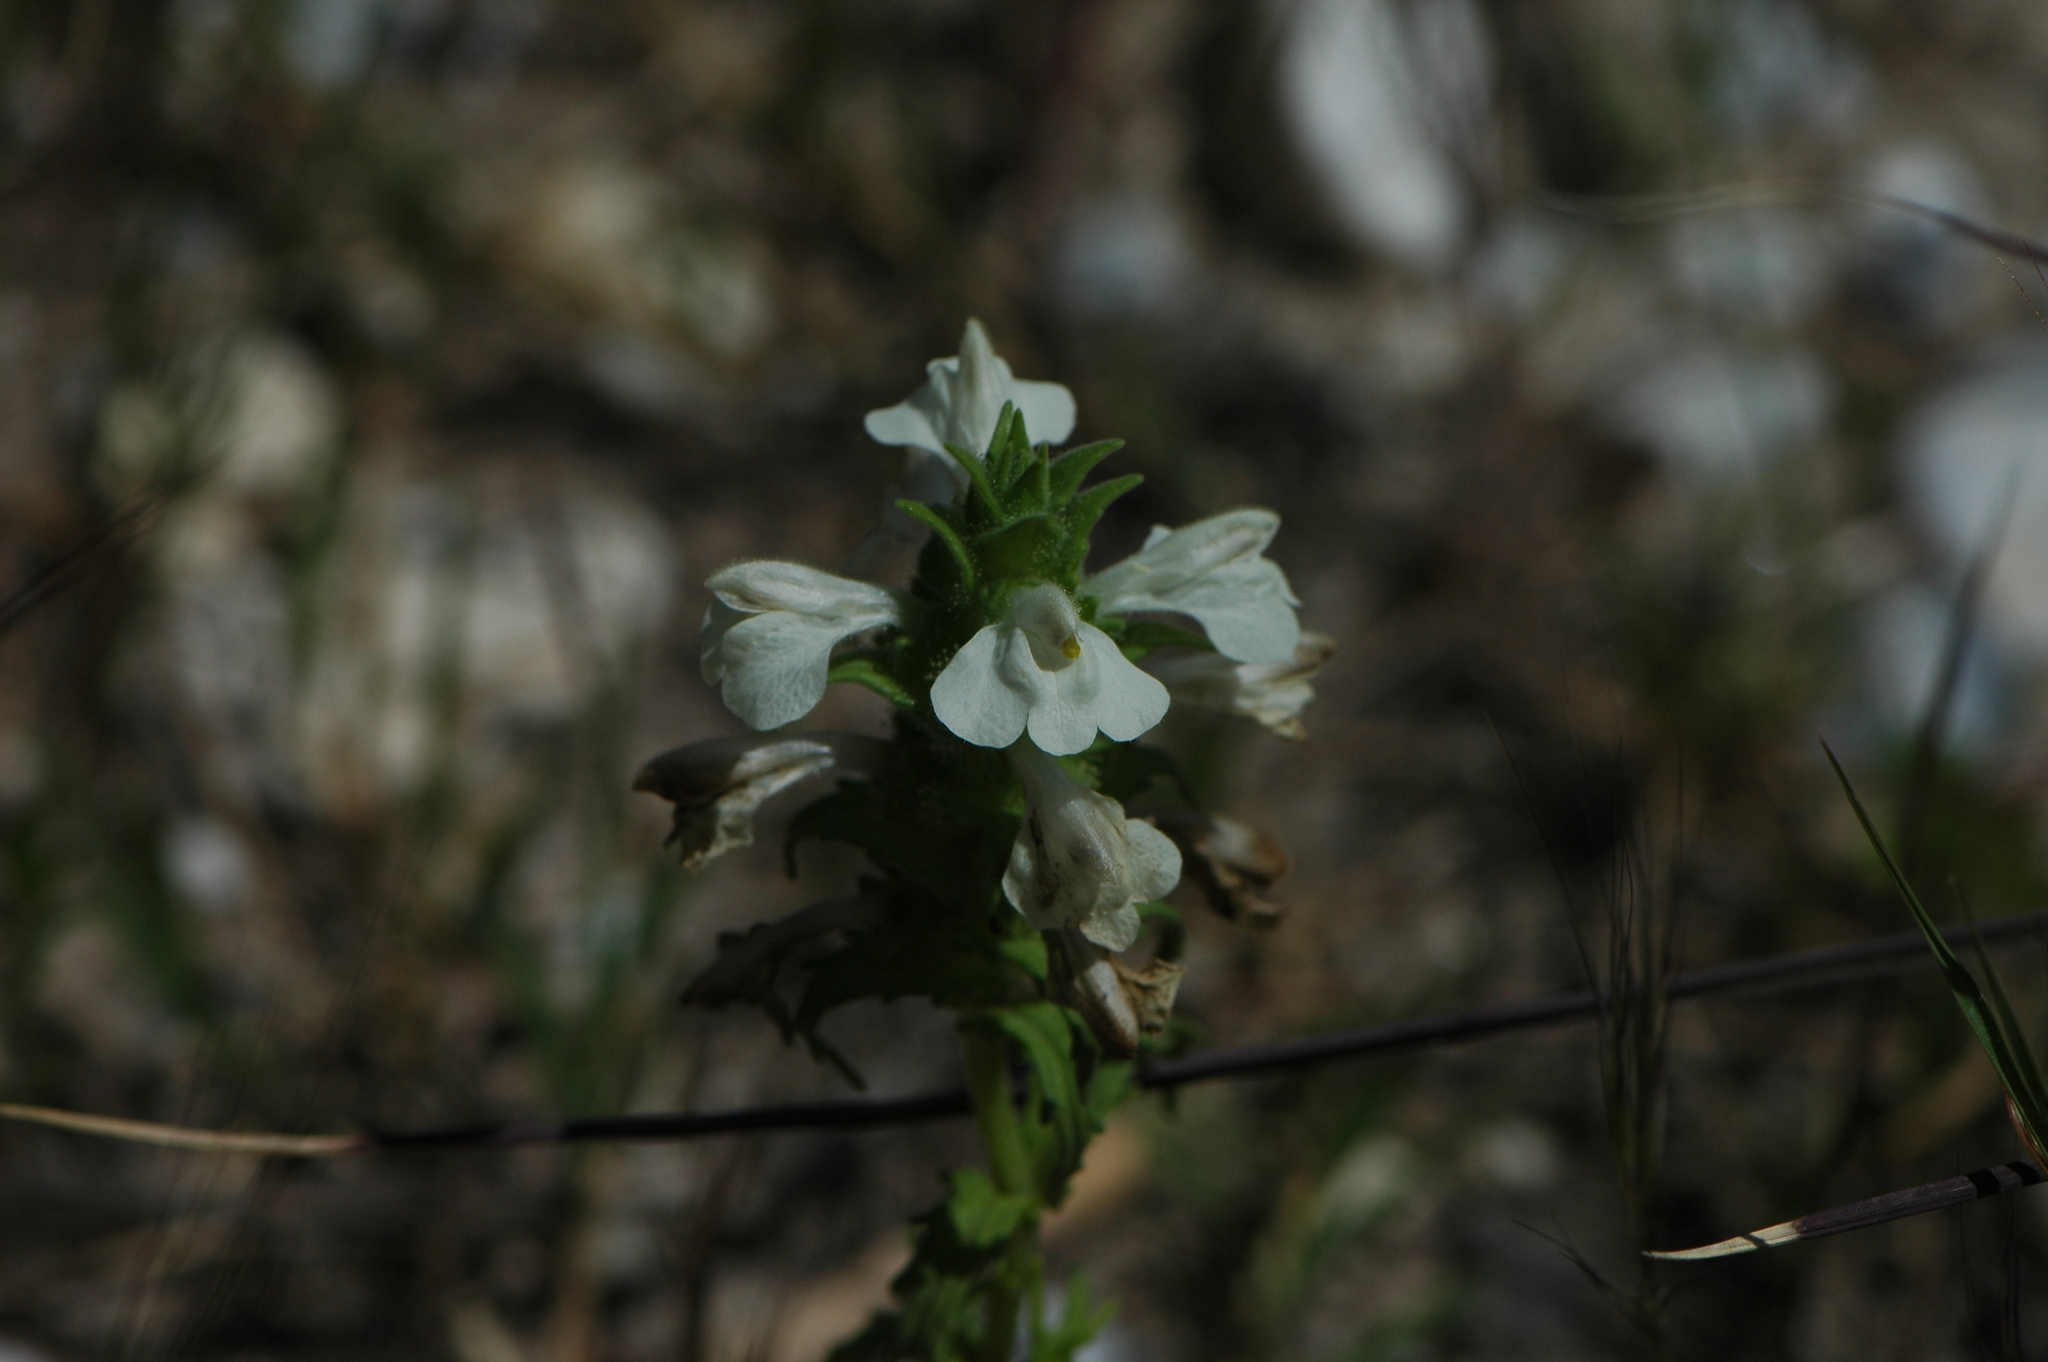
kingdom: Plantae
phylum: Tracheophyta
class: Magnoliopsida
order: Lamiales
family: Orobanchaceae
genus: Bellardia
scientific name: Bellardia trixago
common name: Mediterranean lineseed
